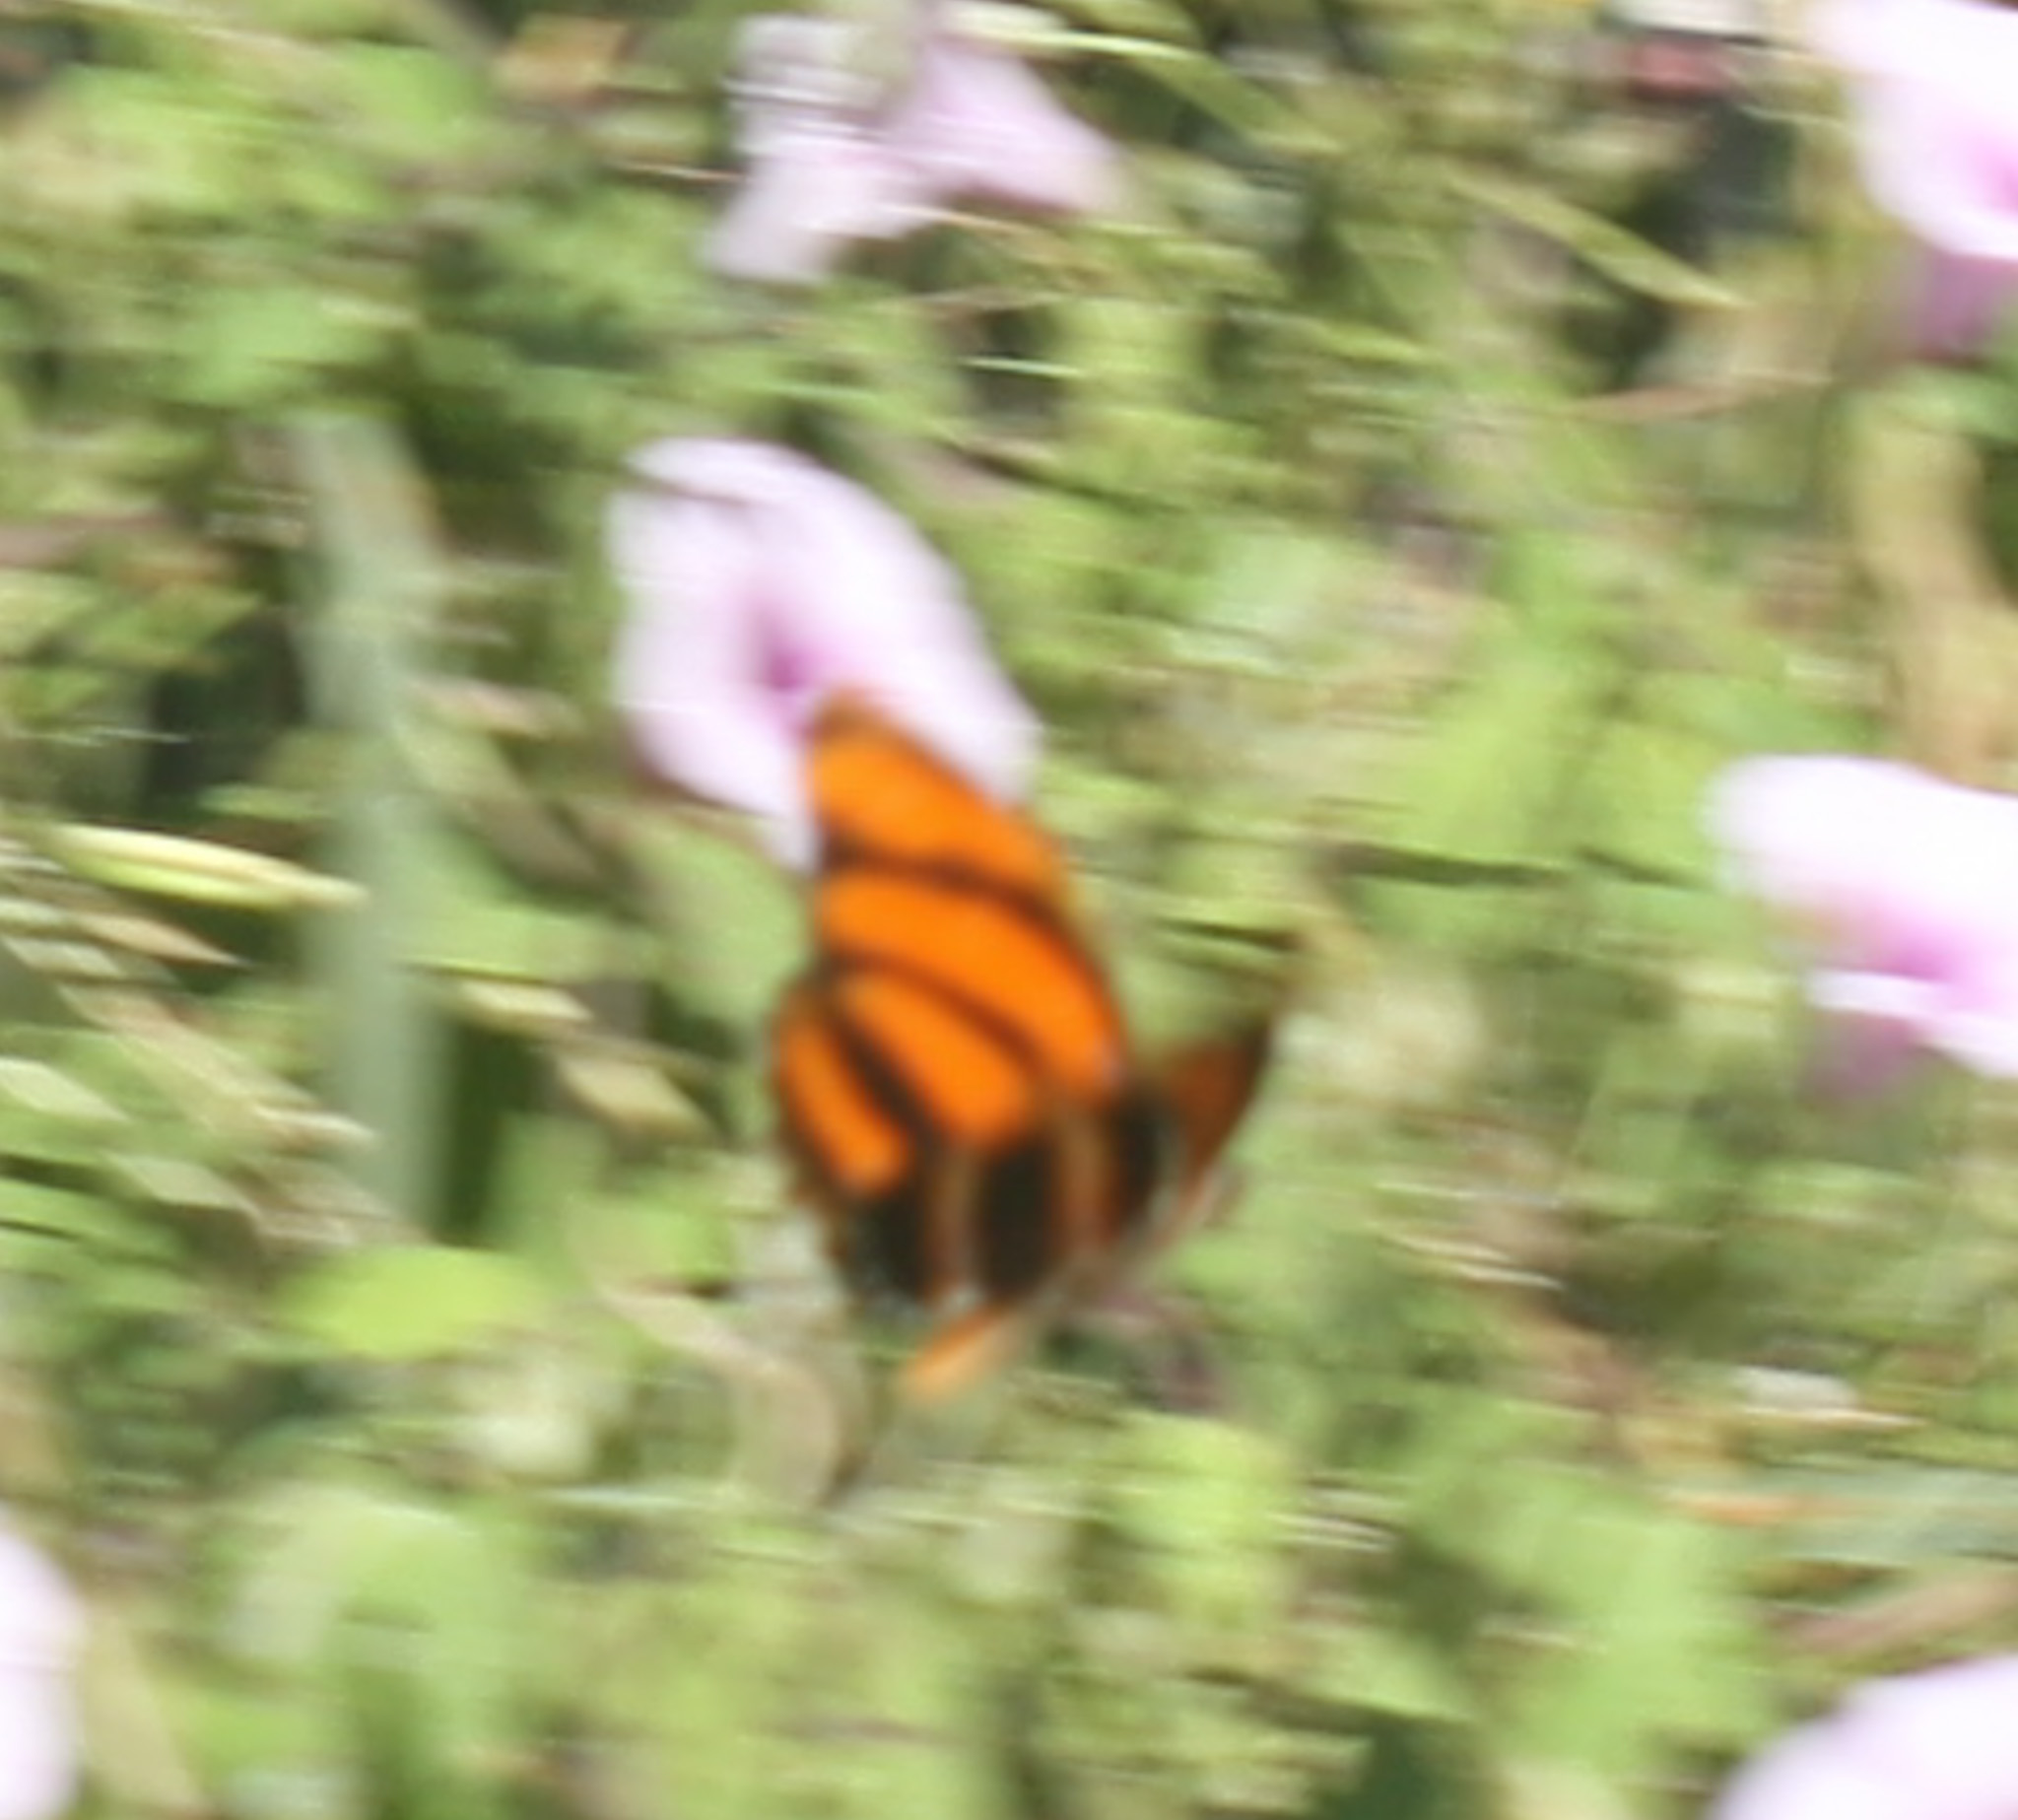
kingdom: Animalia
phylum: Arthropoda
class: Insecta
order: Lepidoptera
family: Nymphalidae
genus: Dryadula
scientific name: Dryadula phaetusa
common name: Banded orange heliconian
